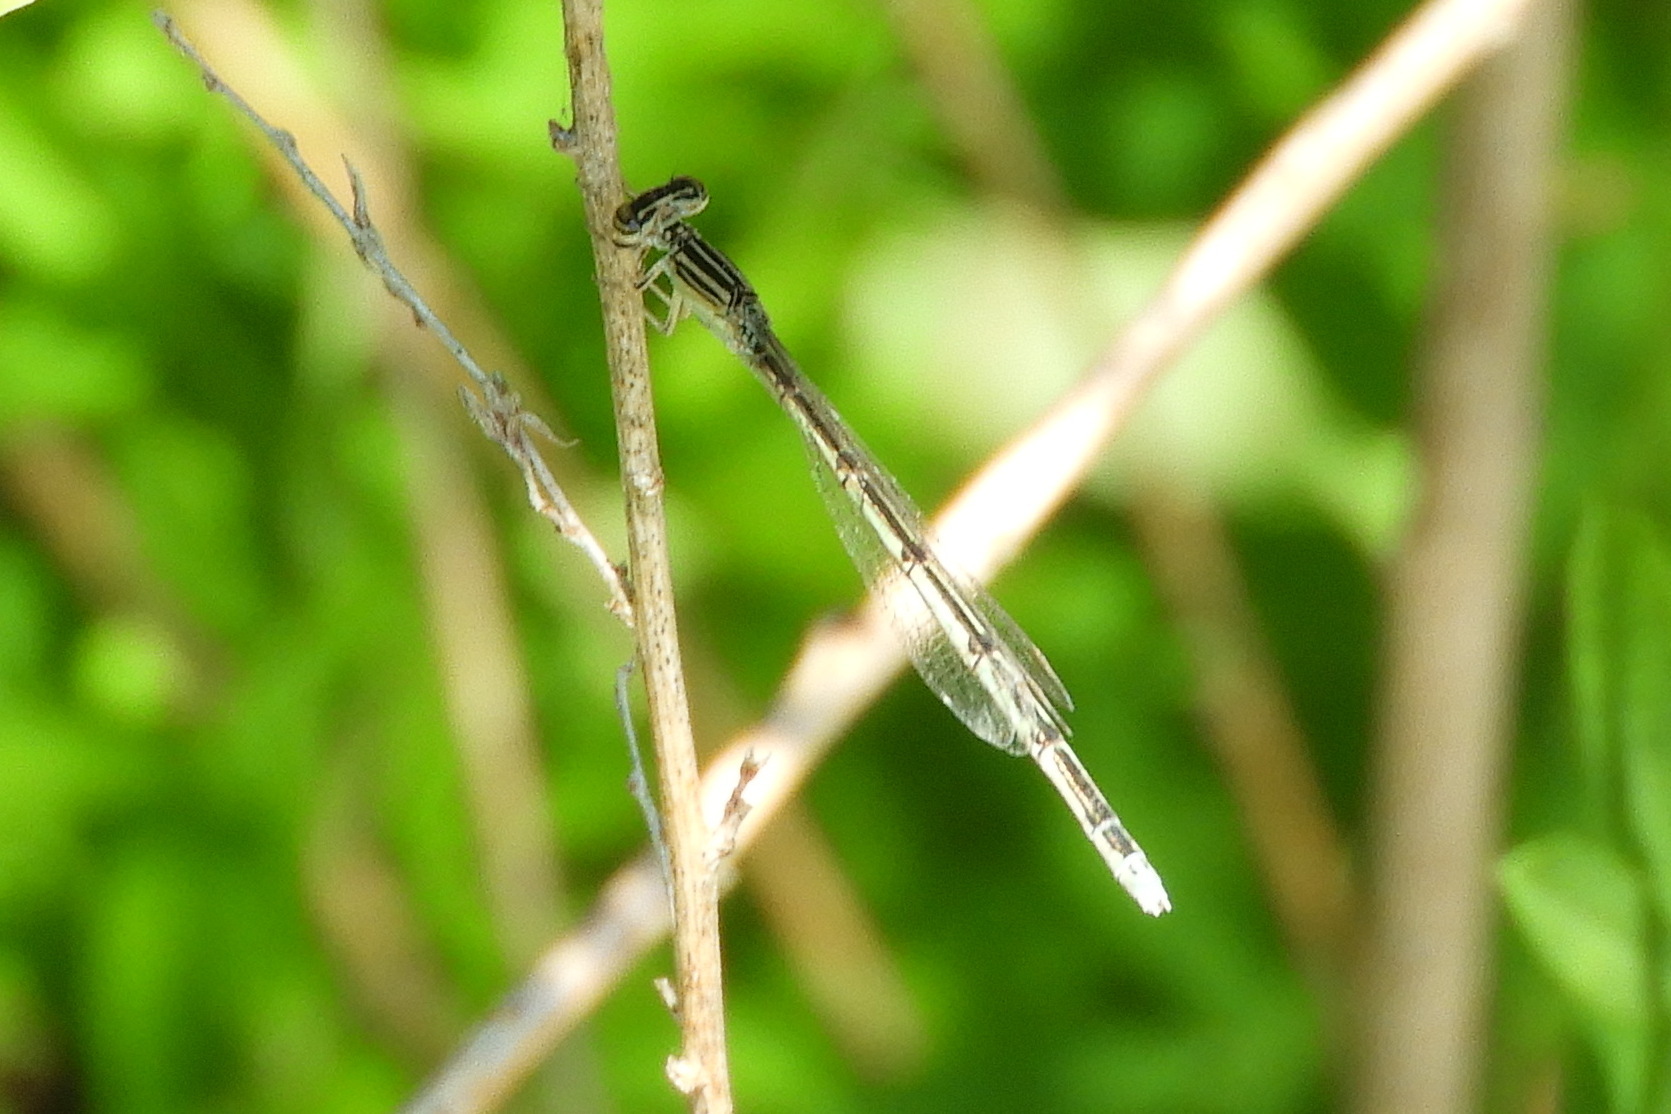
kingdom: Animalia
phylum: Arthropoda
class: Insecta
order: Odonata
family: Coenagrionidae
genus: Enallagma
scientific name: Enallagma basidens
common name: Double-striped bluet
